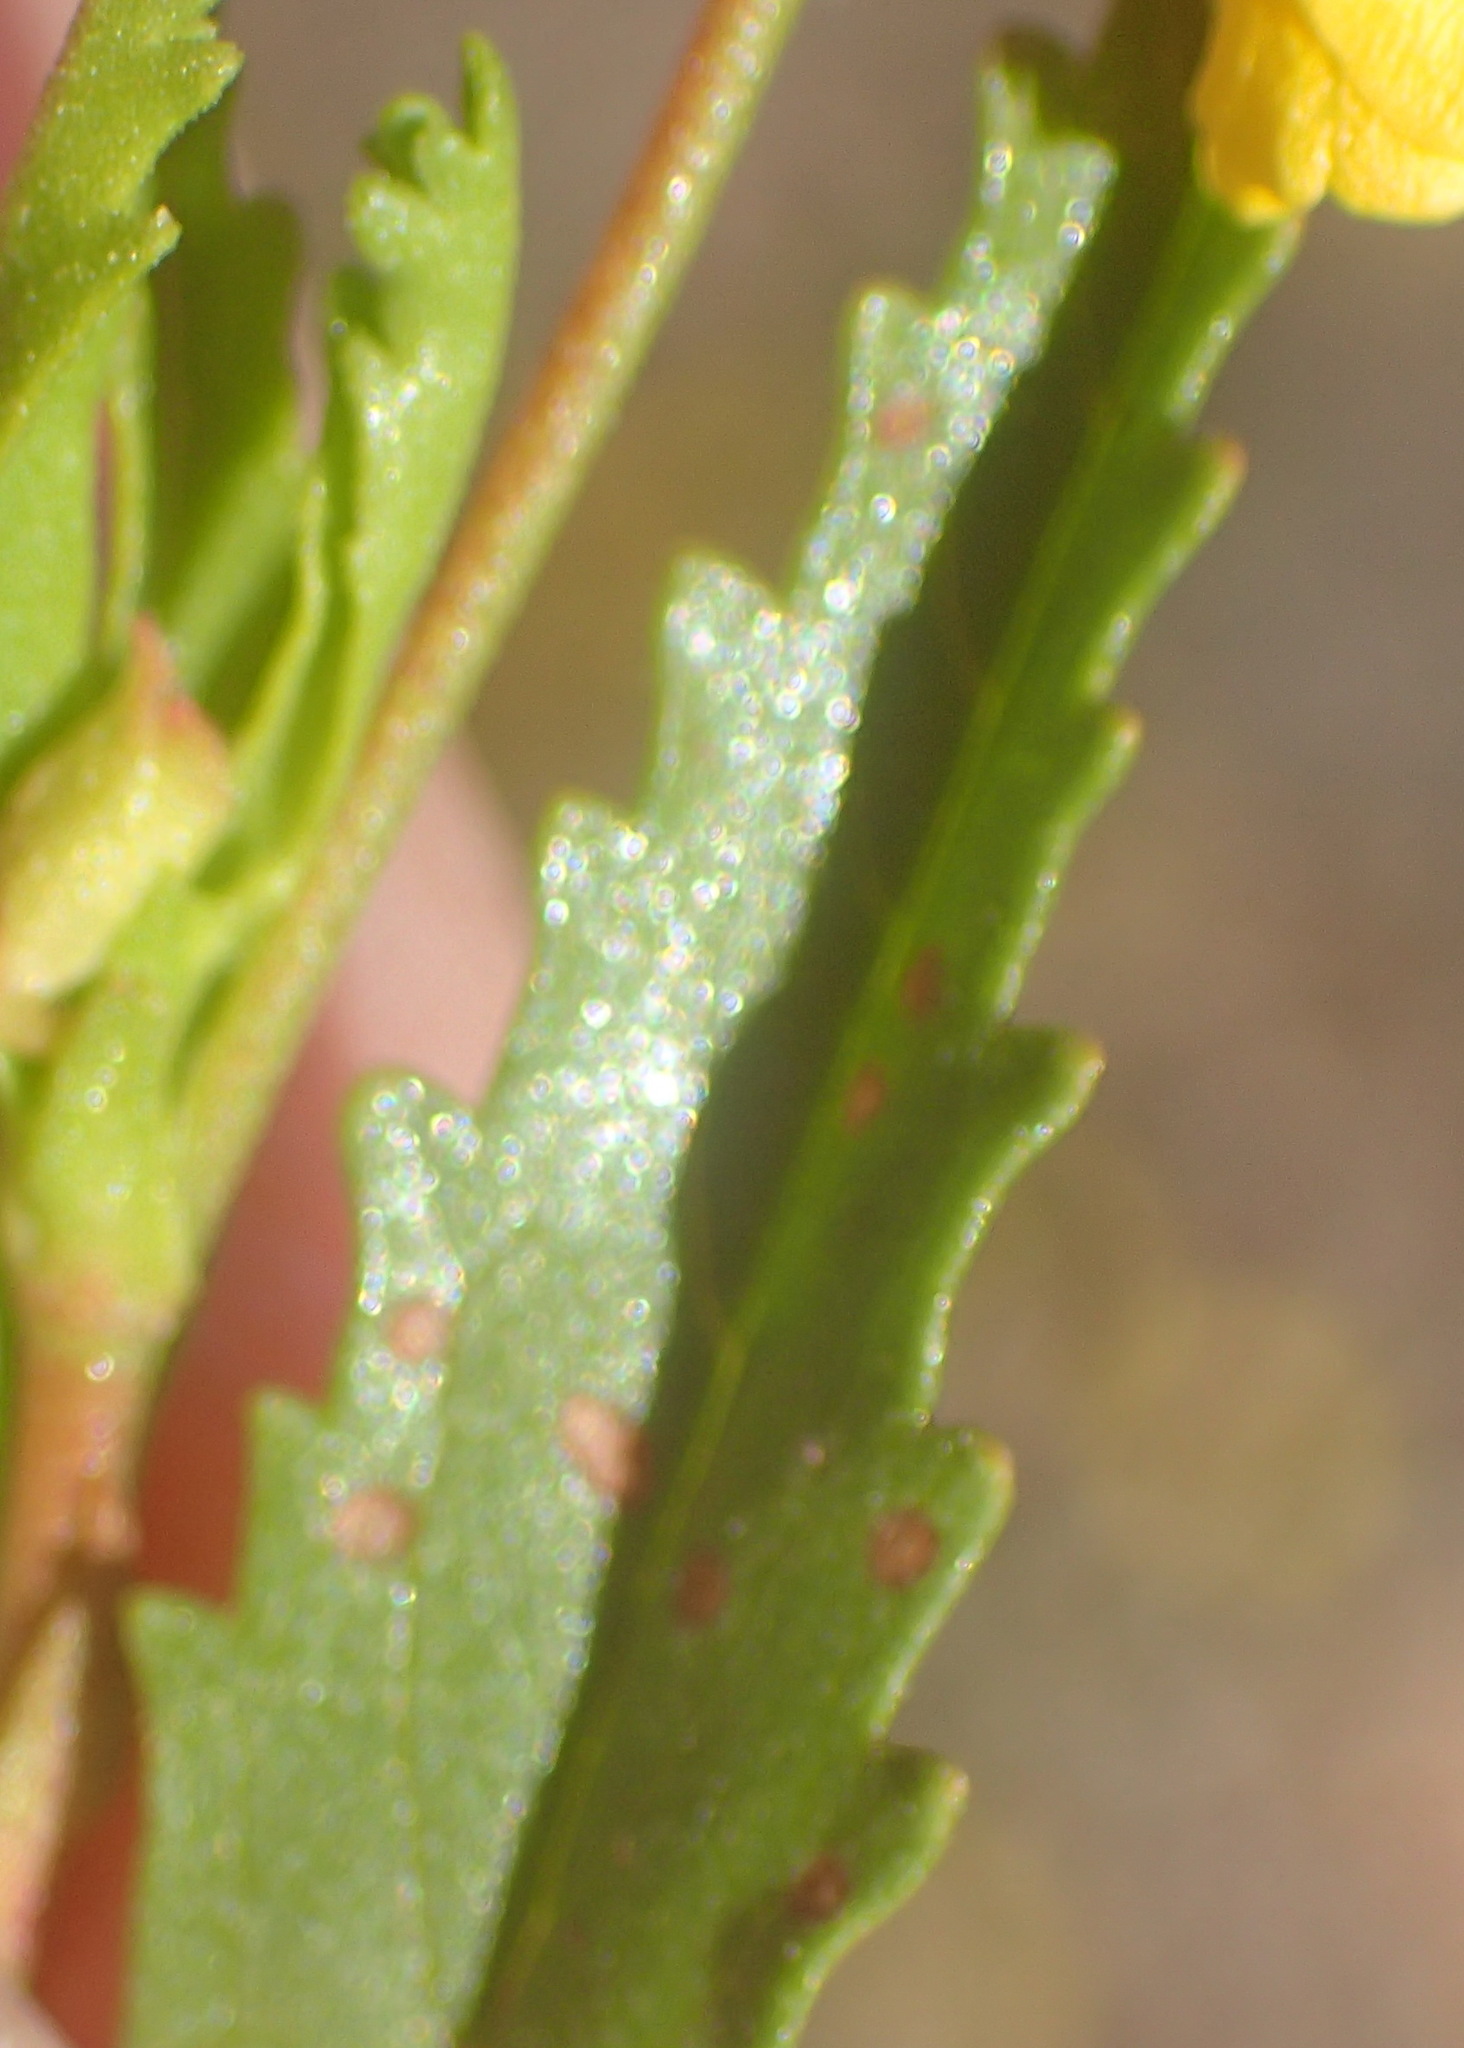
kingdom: Plantae
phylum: Tracheophyta
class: Magnoliopsida
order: Malvales
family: Malvaceae
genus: Hermannia
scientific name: Hermannia saccifera
